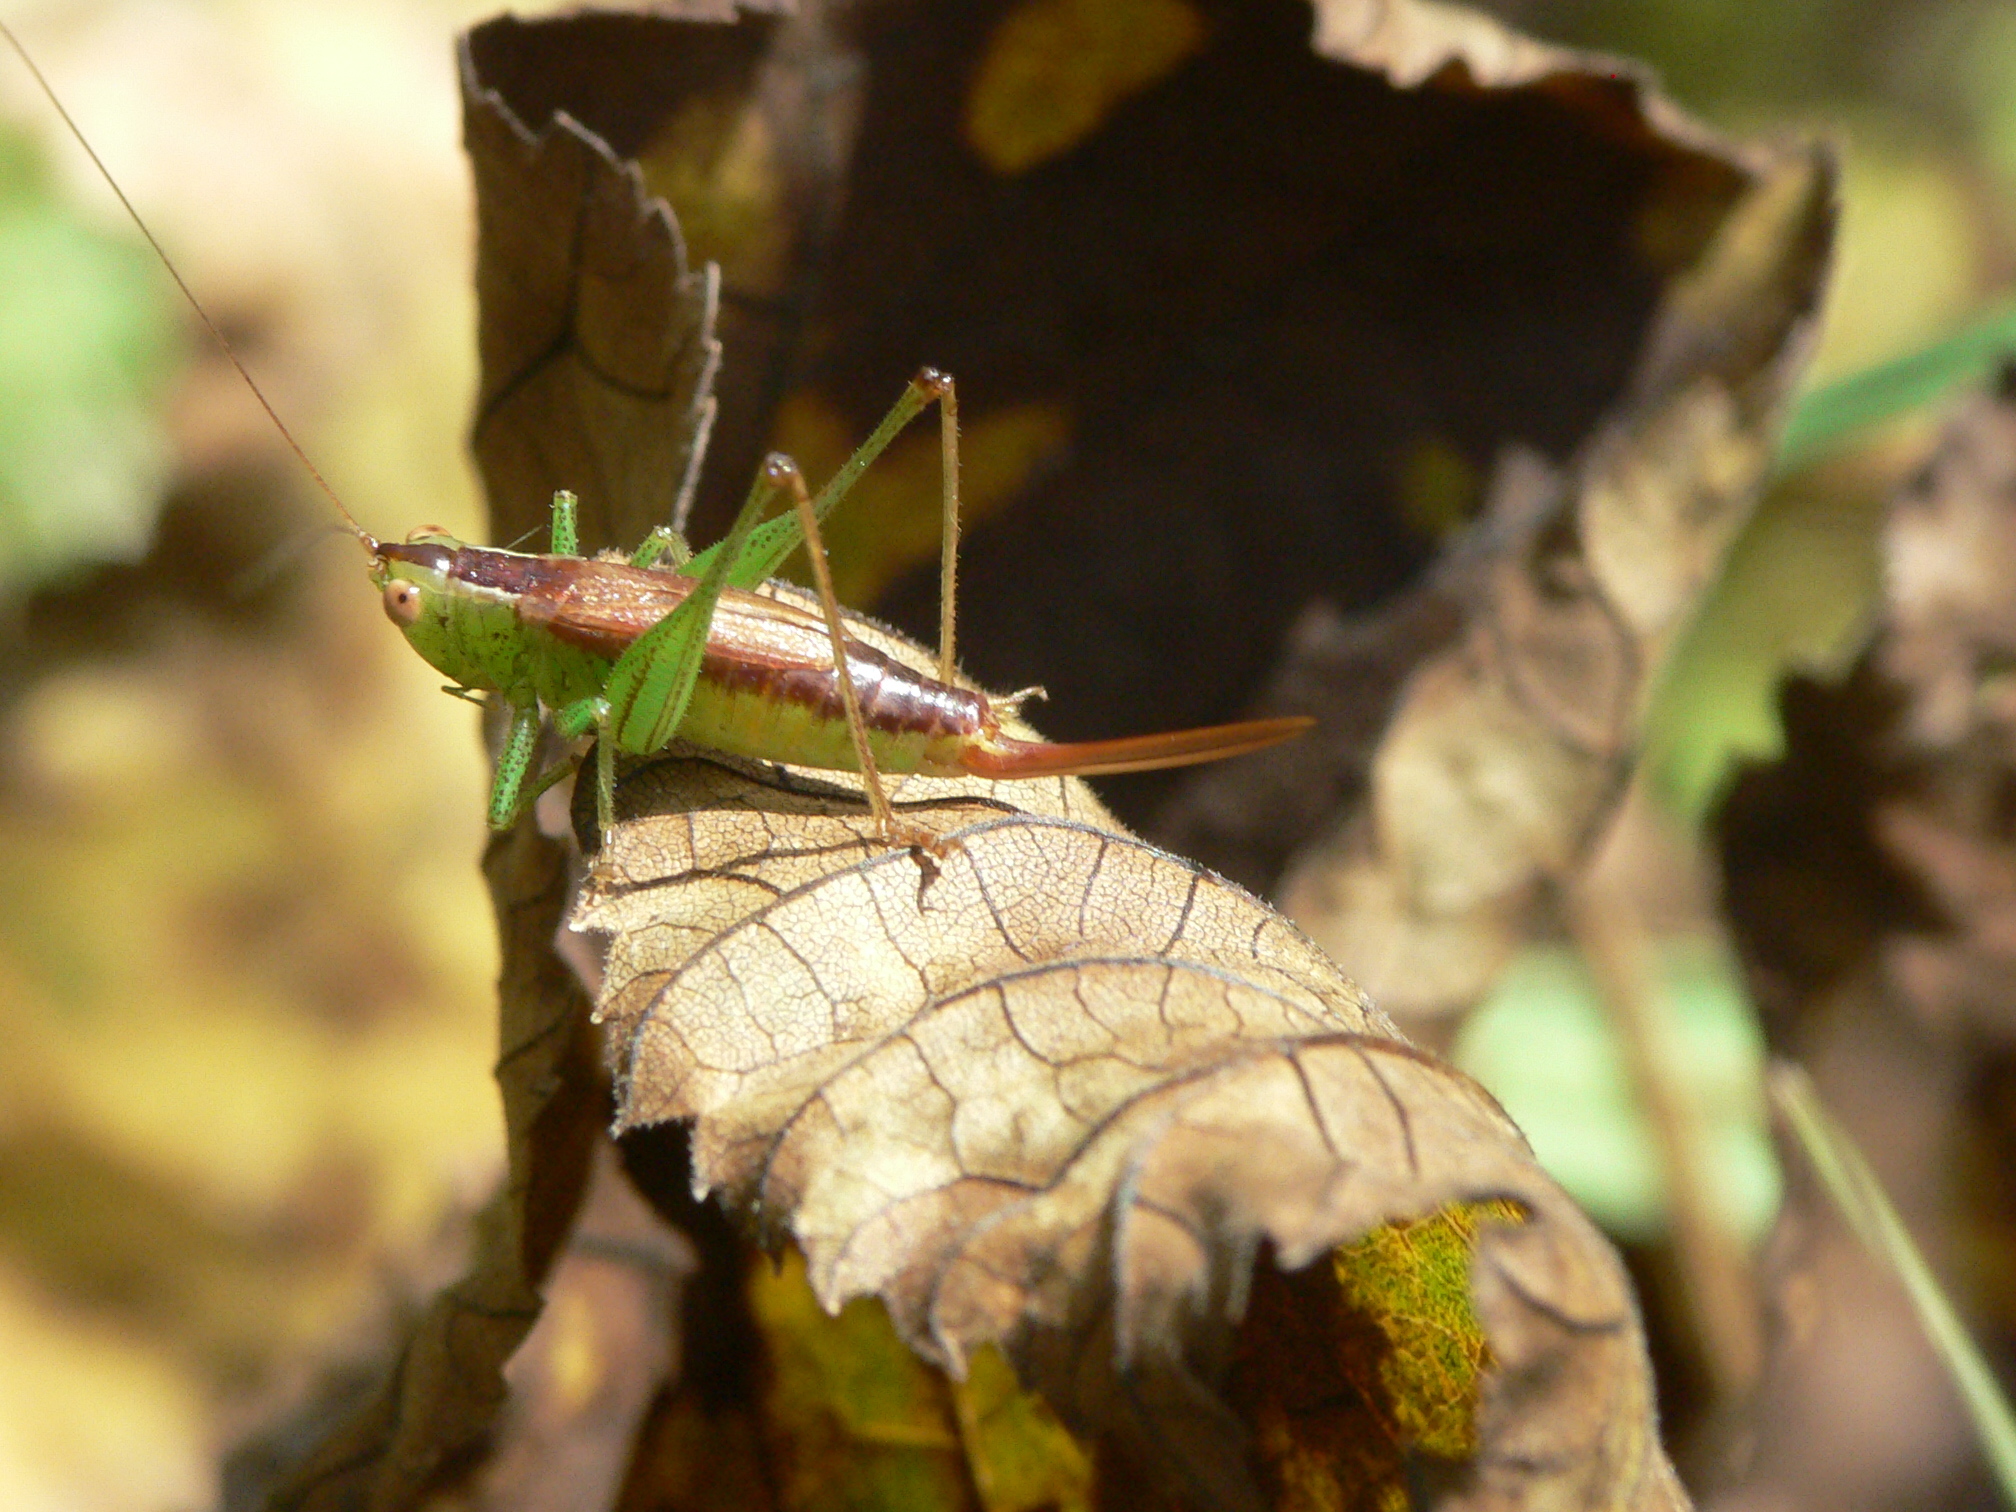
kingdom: Animalia
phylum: Arthropoda
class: Insecta
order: Orthoptera
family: Tettigoniidae
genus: Conocephalus
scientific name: Conocephalus brevipennis
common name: Short-winged meadow katydid
